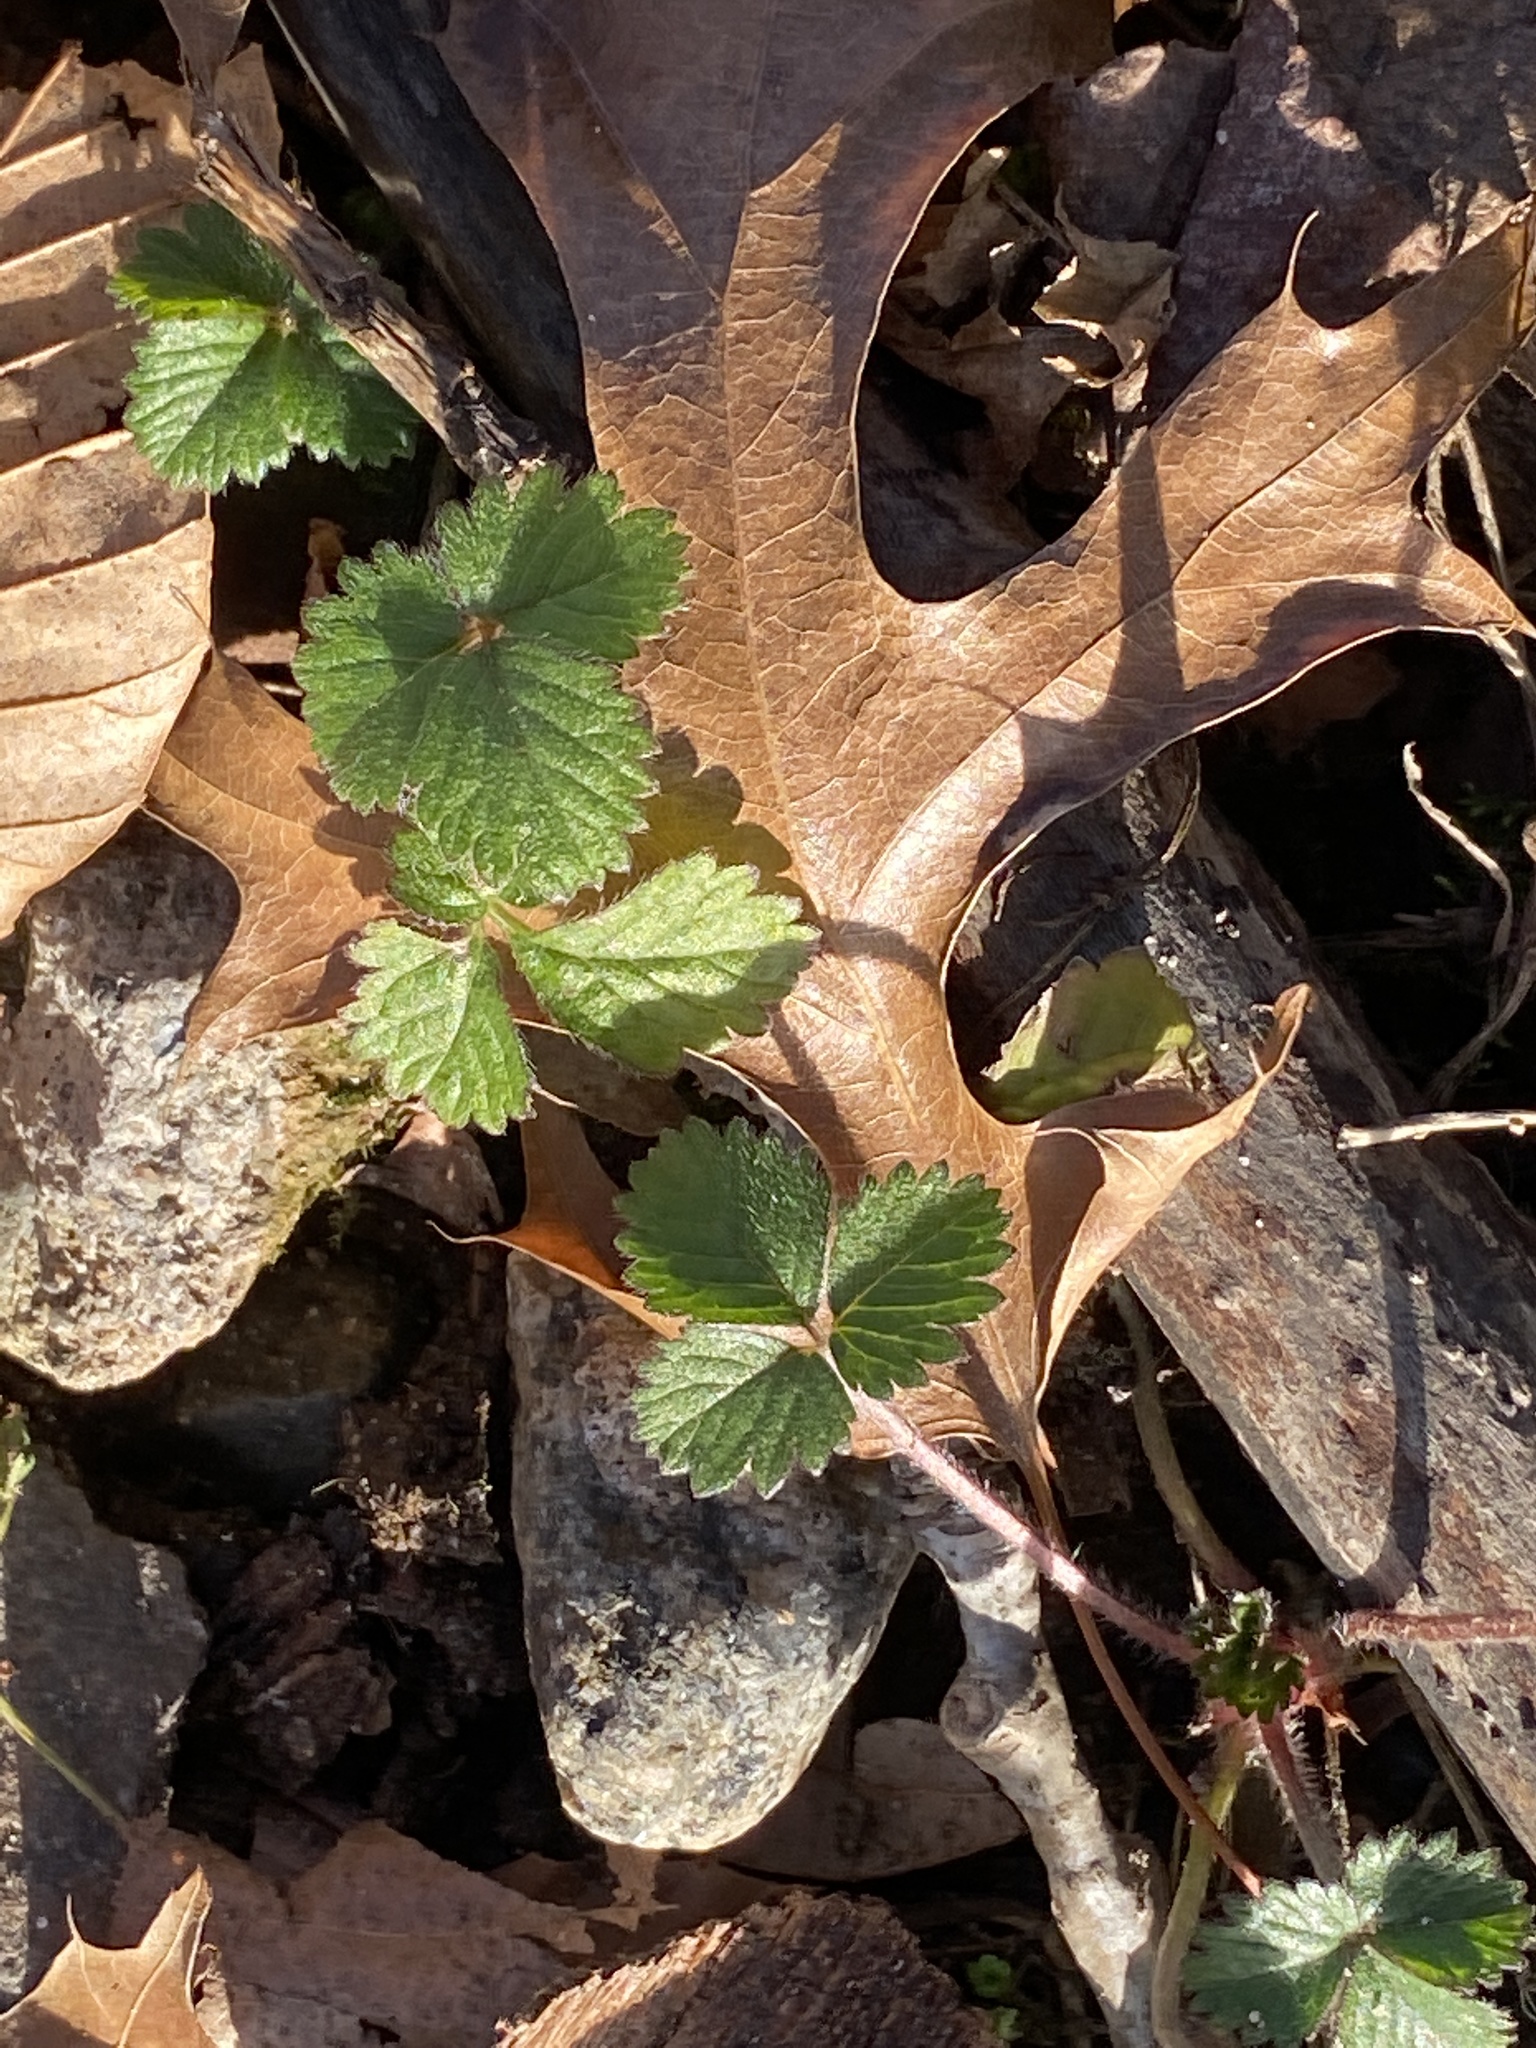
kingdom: Plantae
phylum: Tracheophyta
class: Magnoliopsida
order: Rosales
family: Rosaceae
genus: Potentilla
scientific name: Potentilla indica
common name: Yellow-flowered strawberry
